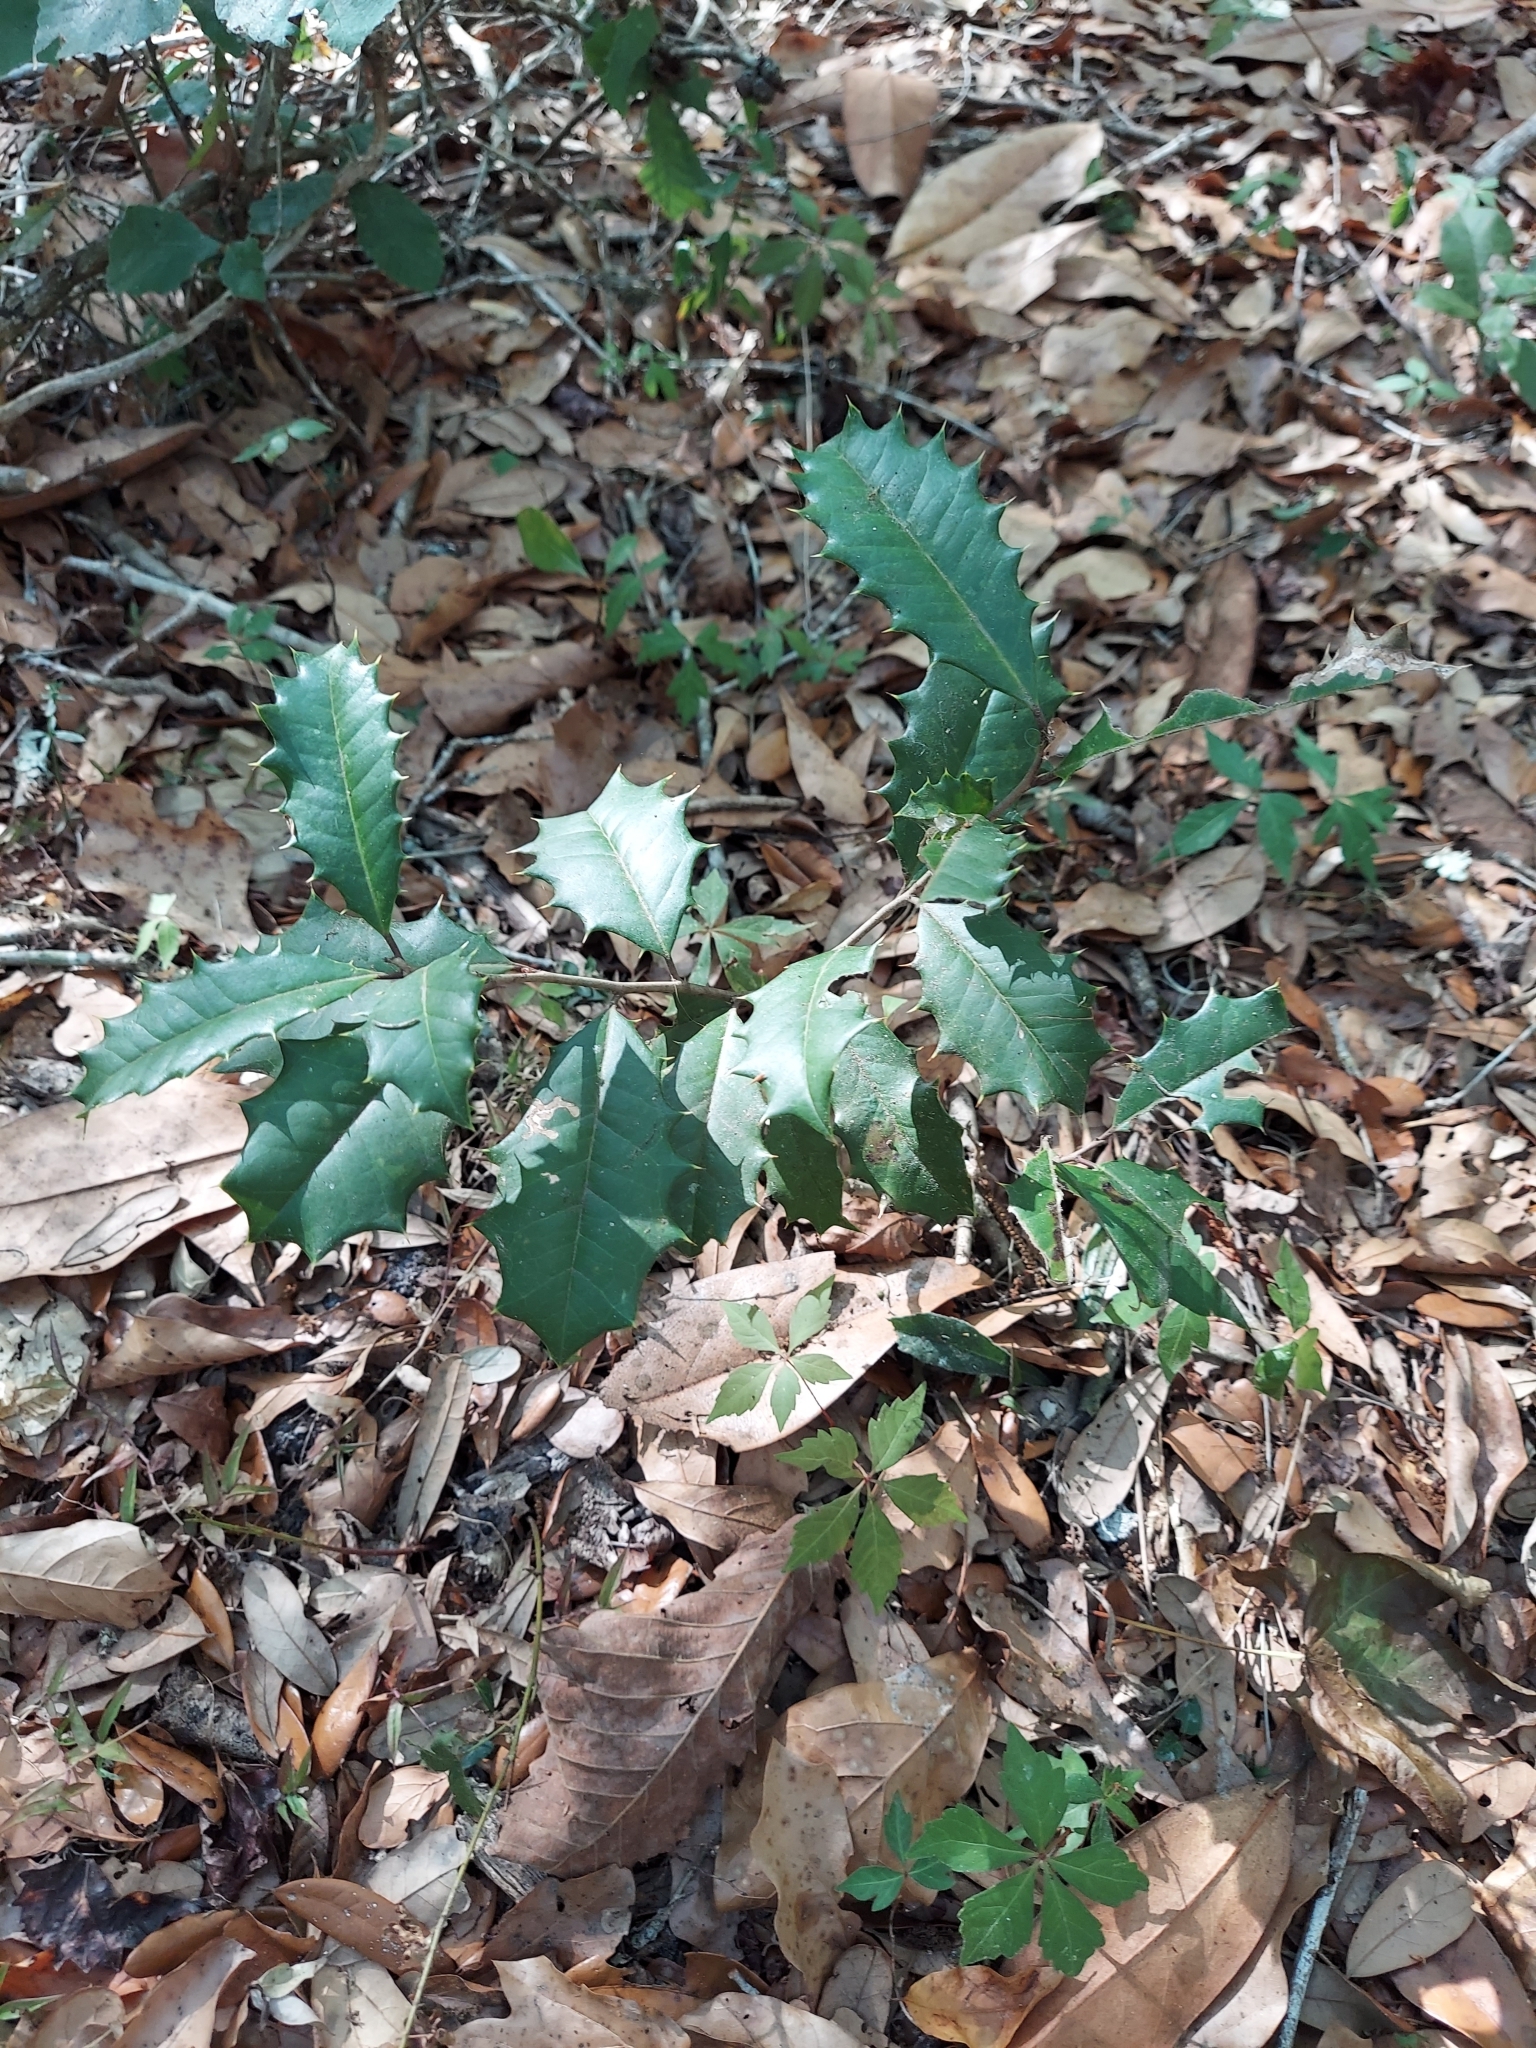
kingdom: Plantae
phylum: Tracheophyta
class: Magnoliopsida
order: Aquifoliales
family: Aquifoliaceae
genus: Ilex
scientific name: Ilex opaca
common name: American holly
